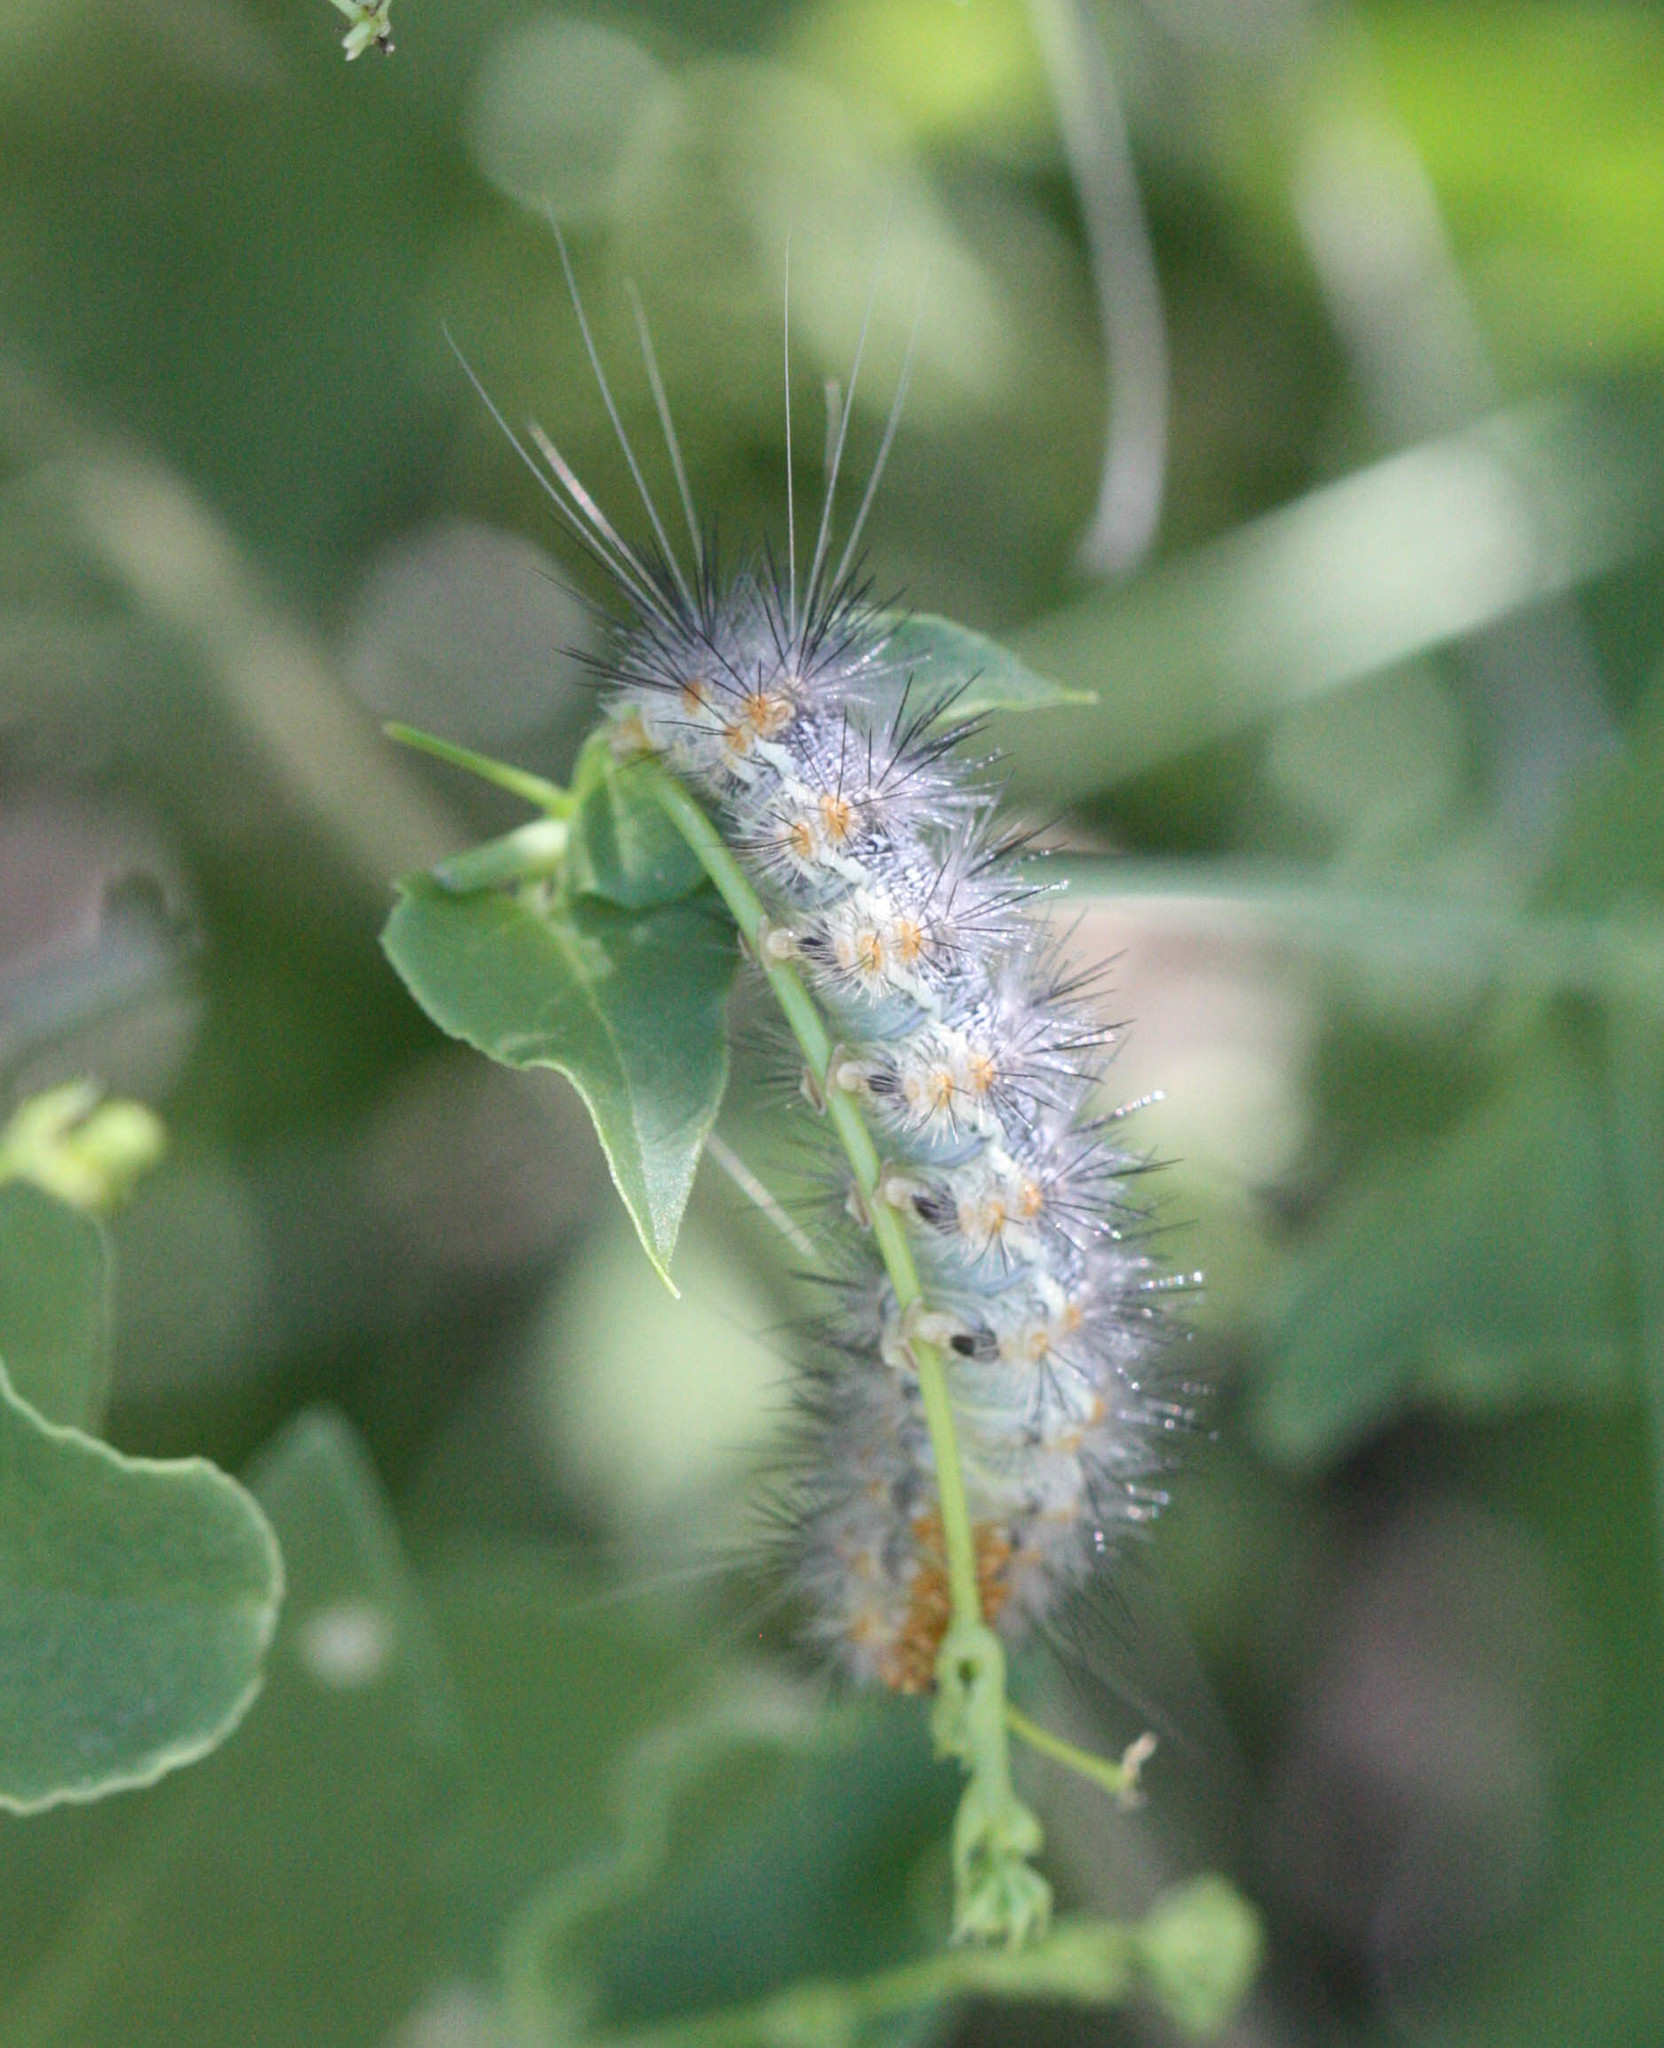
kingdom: Animalia
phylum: Arthropoda
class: Insecta
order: Lepidoptera
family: Erebidae
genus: Hypercompe
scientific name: Hypercompe suffusa
